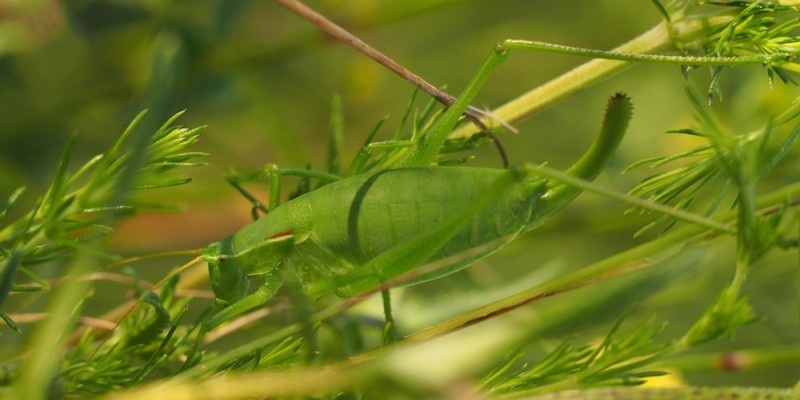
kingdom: Animalia
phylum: Arthropoda
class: Insecta
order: Orthoptera
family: Tettigoniidae
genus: Isophya
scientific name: Isophya costata
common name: Keeled plump bush-cricket
